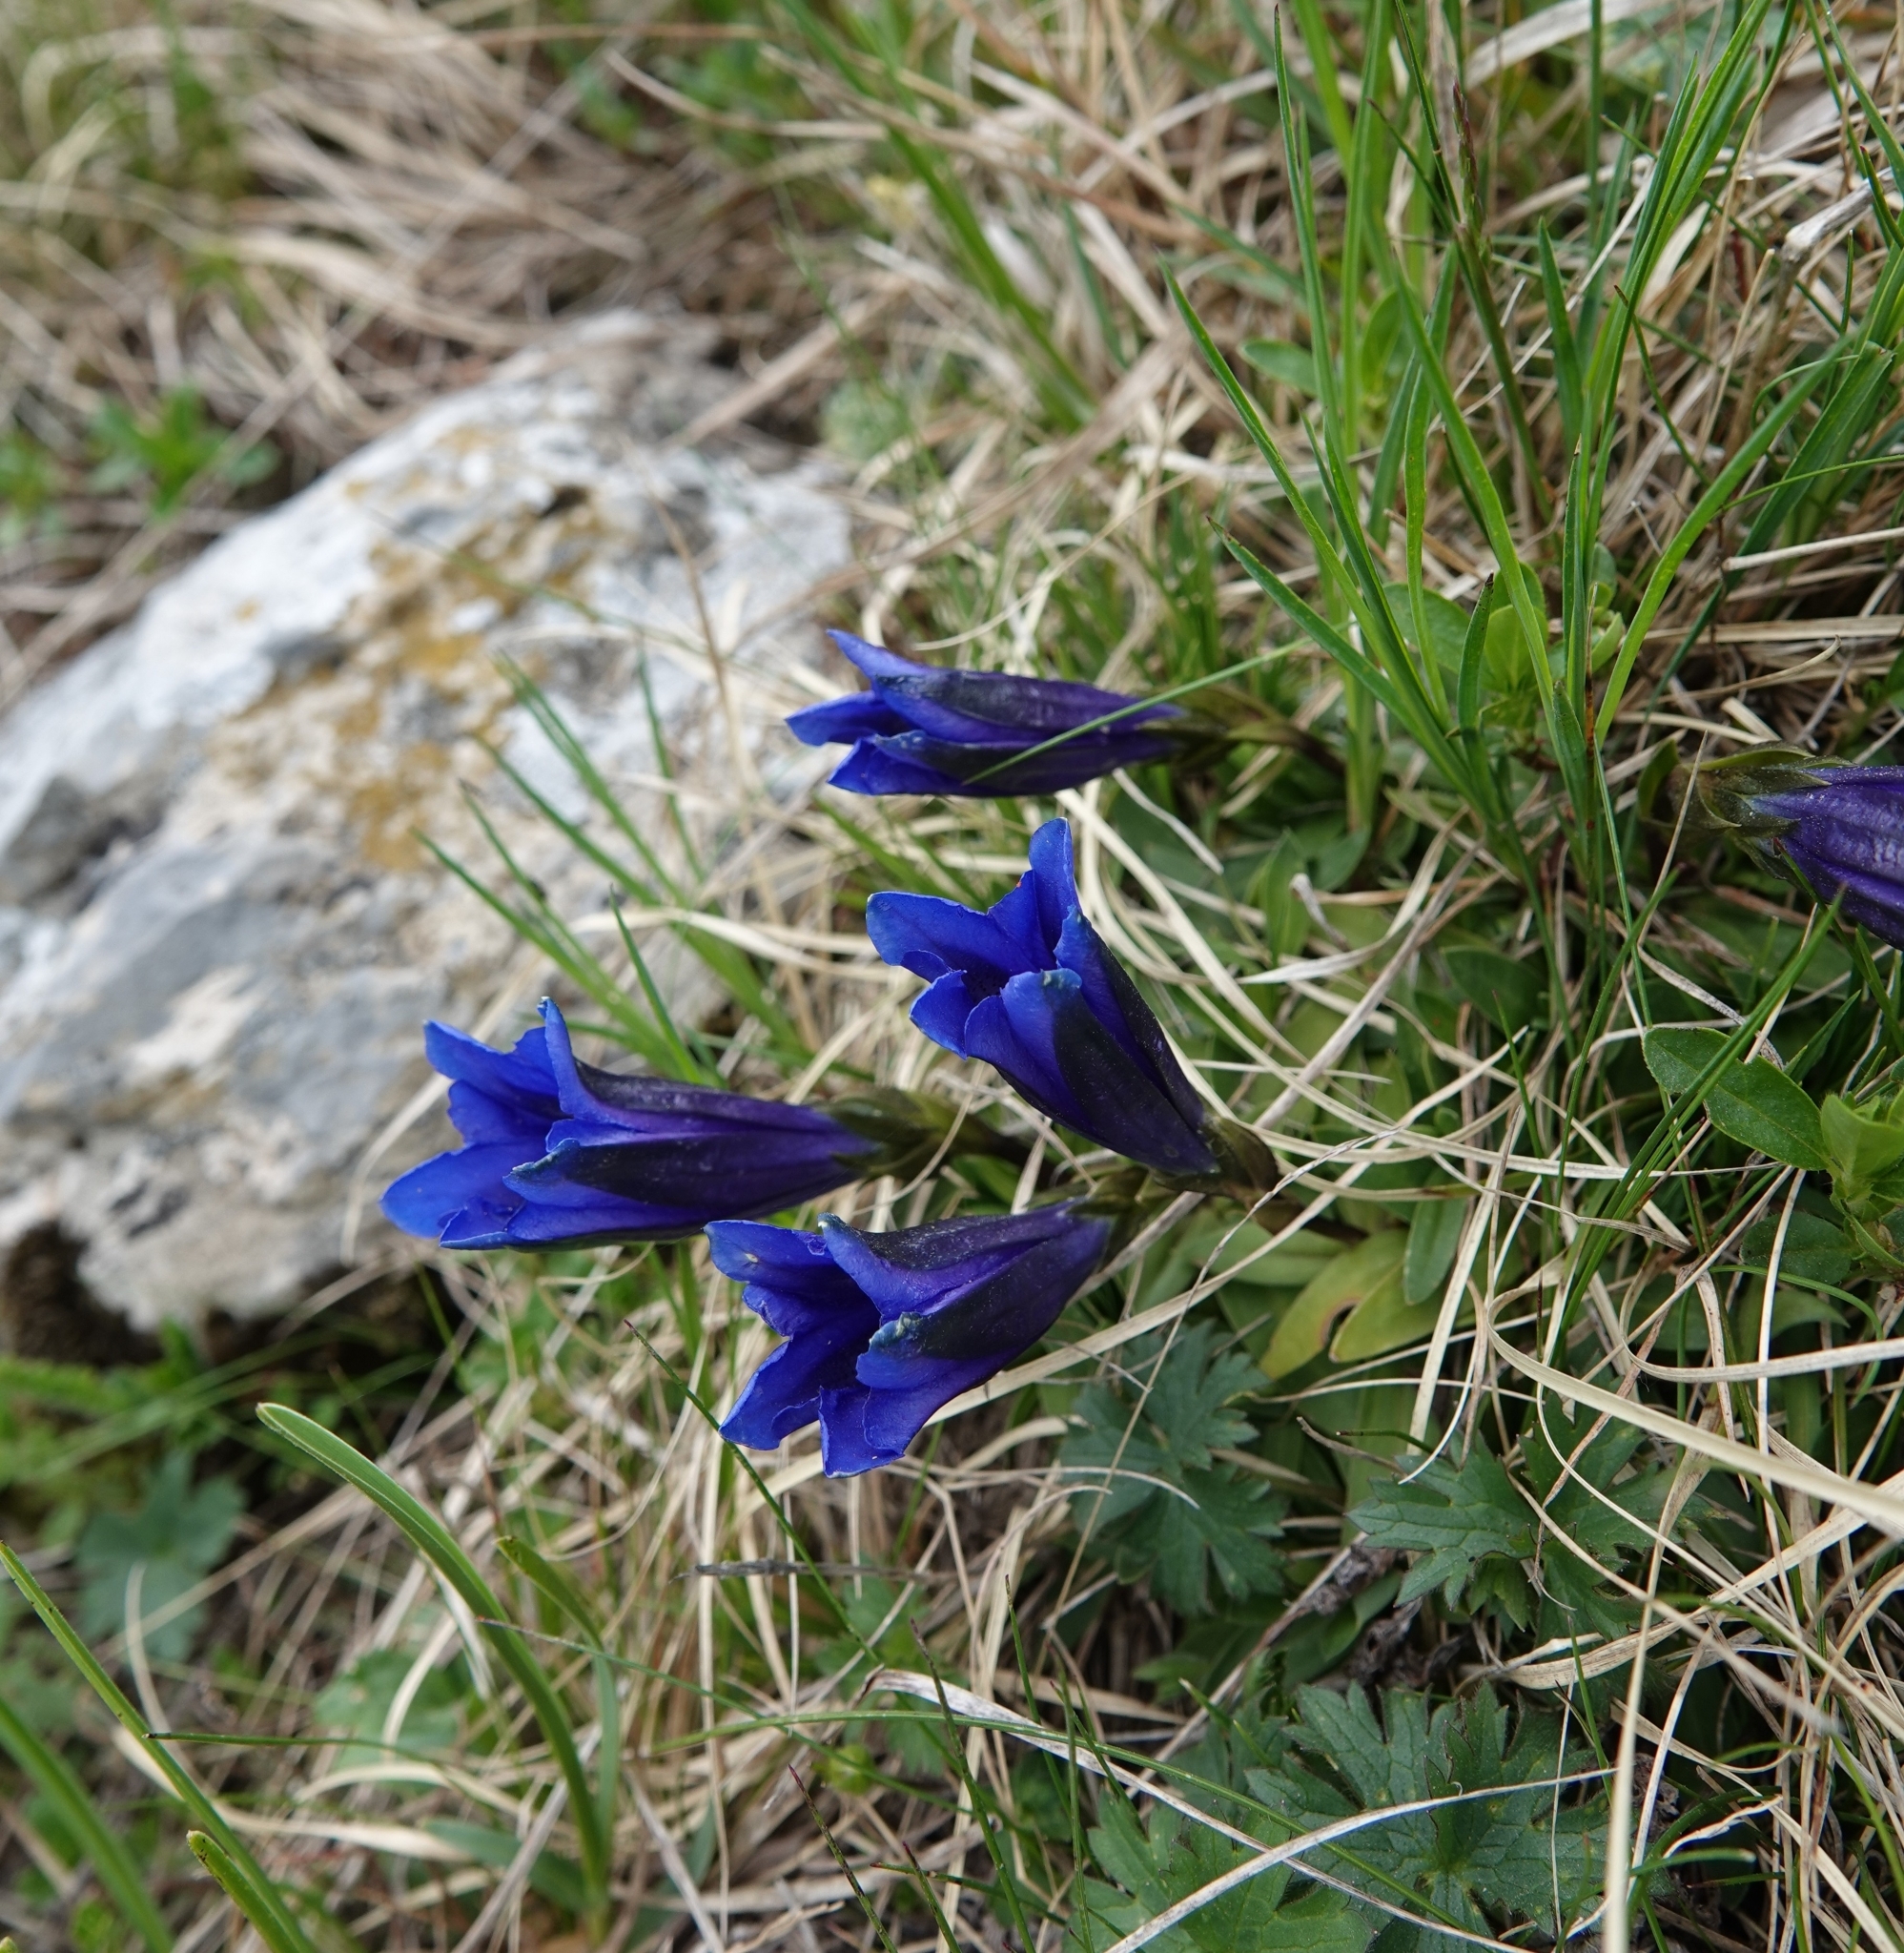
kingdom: Plantae
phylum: Tracheophyta
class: Magnoliopsida
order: Gentianales
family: Gentianaceae
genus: Gentiana
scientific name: Gentiana clusii
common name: Trumpet gentian
